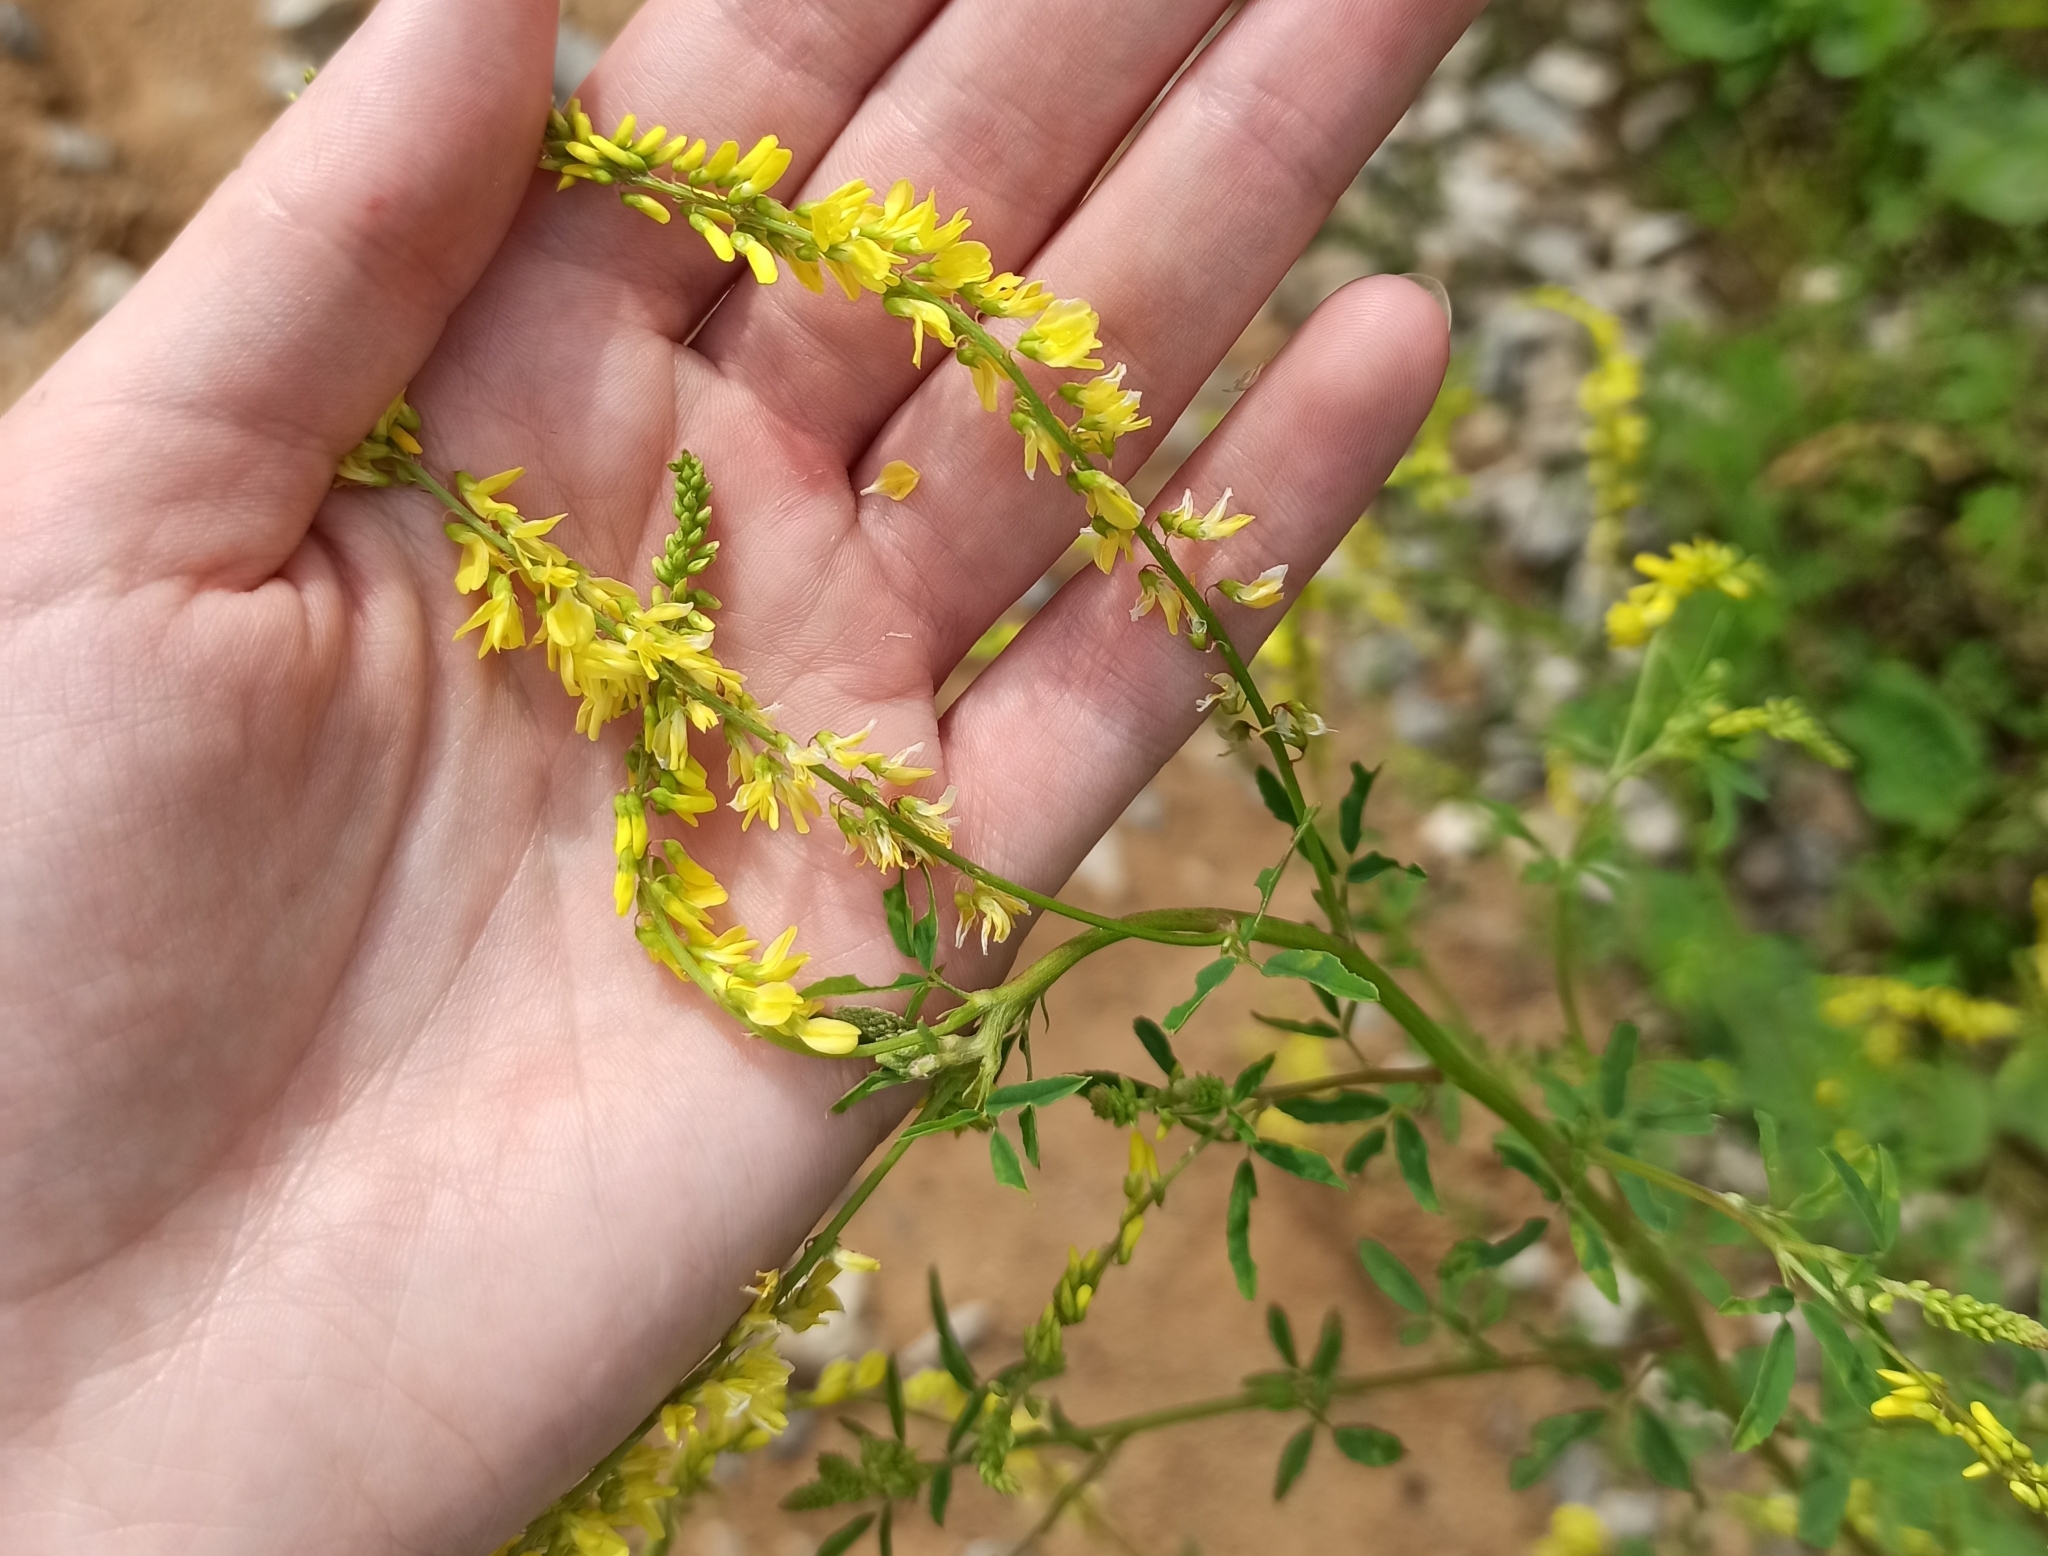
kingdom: Plantae
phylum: Tracheophyta
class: Magnoliopsida
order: Fabales
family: Fabaceae
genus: Melilotus
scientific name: Melilotus officinalis
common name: Sweetclover
